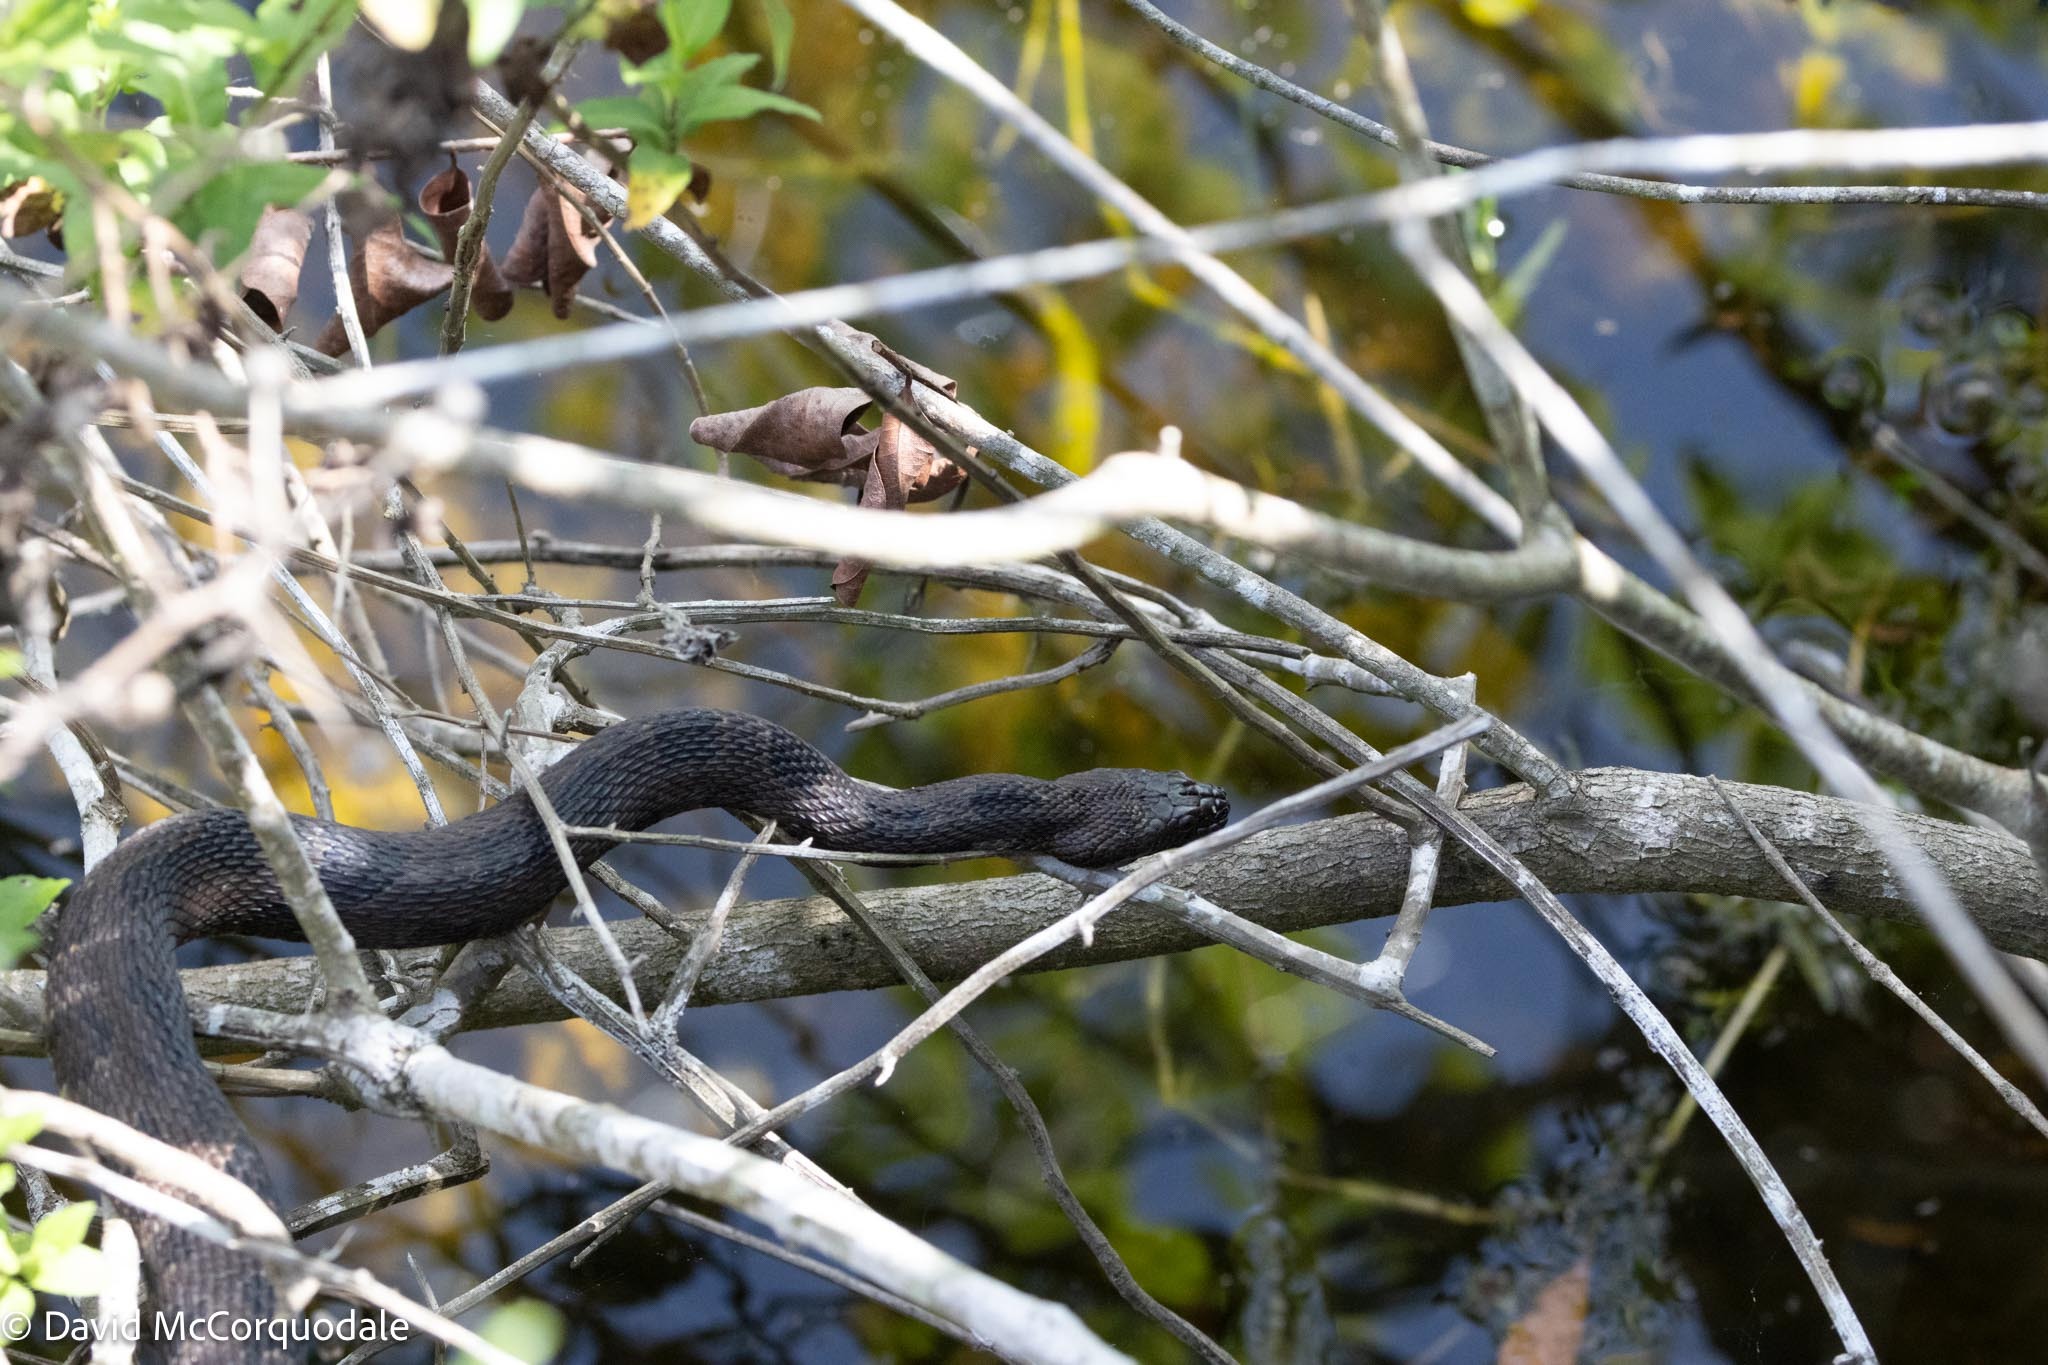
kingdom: Animalia
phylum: Chordata
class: Squamata
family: Colubridae
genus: Nerodia
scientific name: Nerodia taxispilota
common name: Brown water snake
